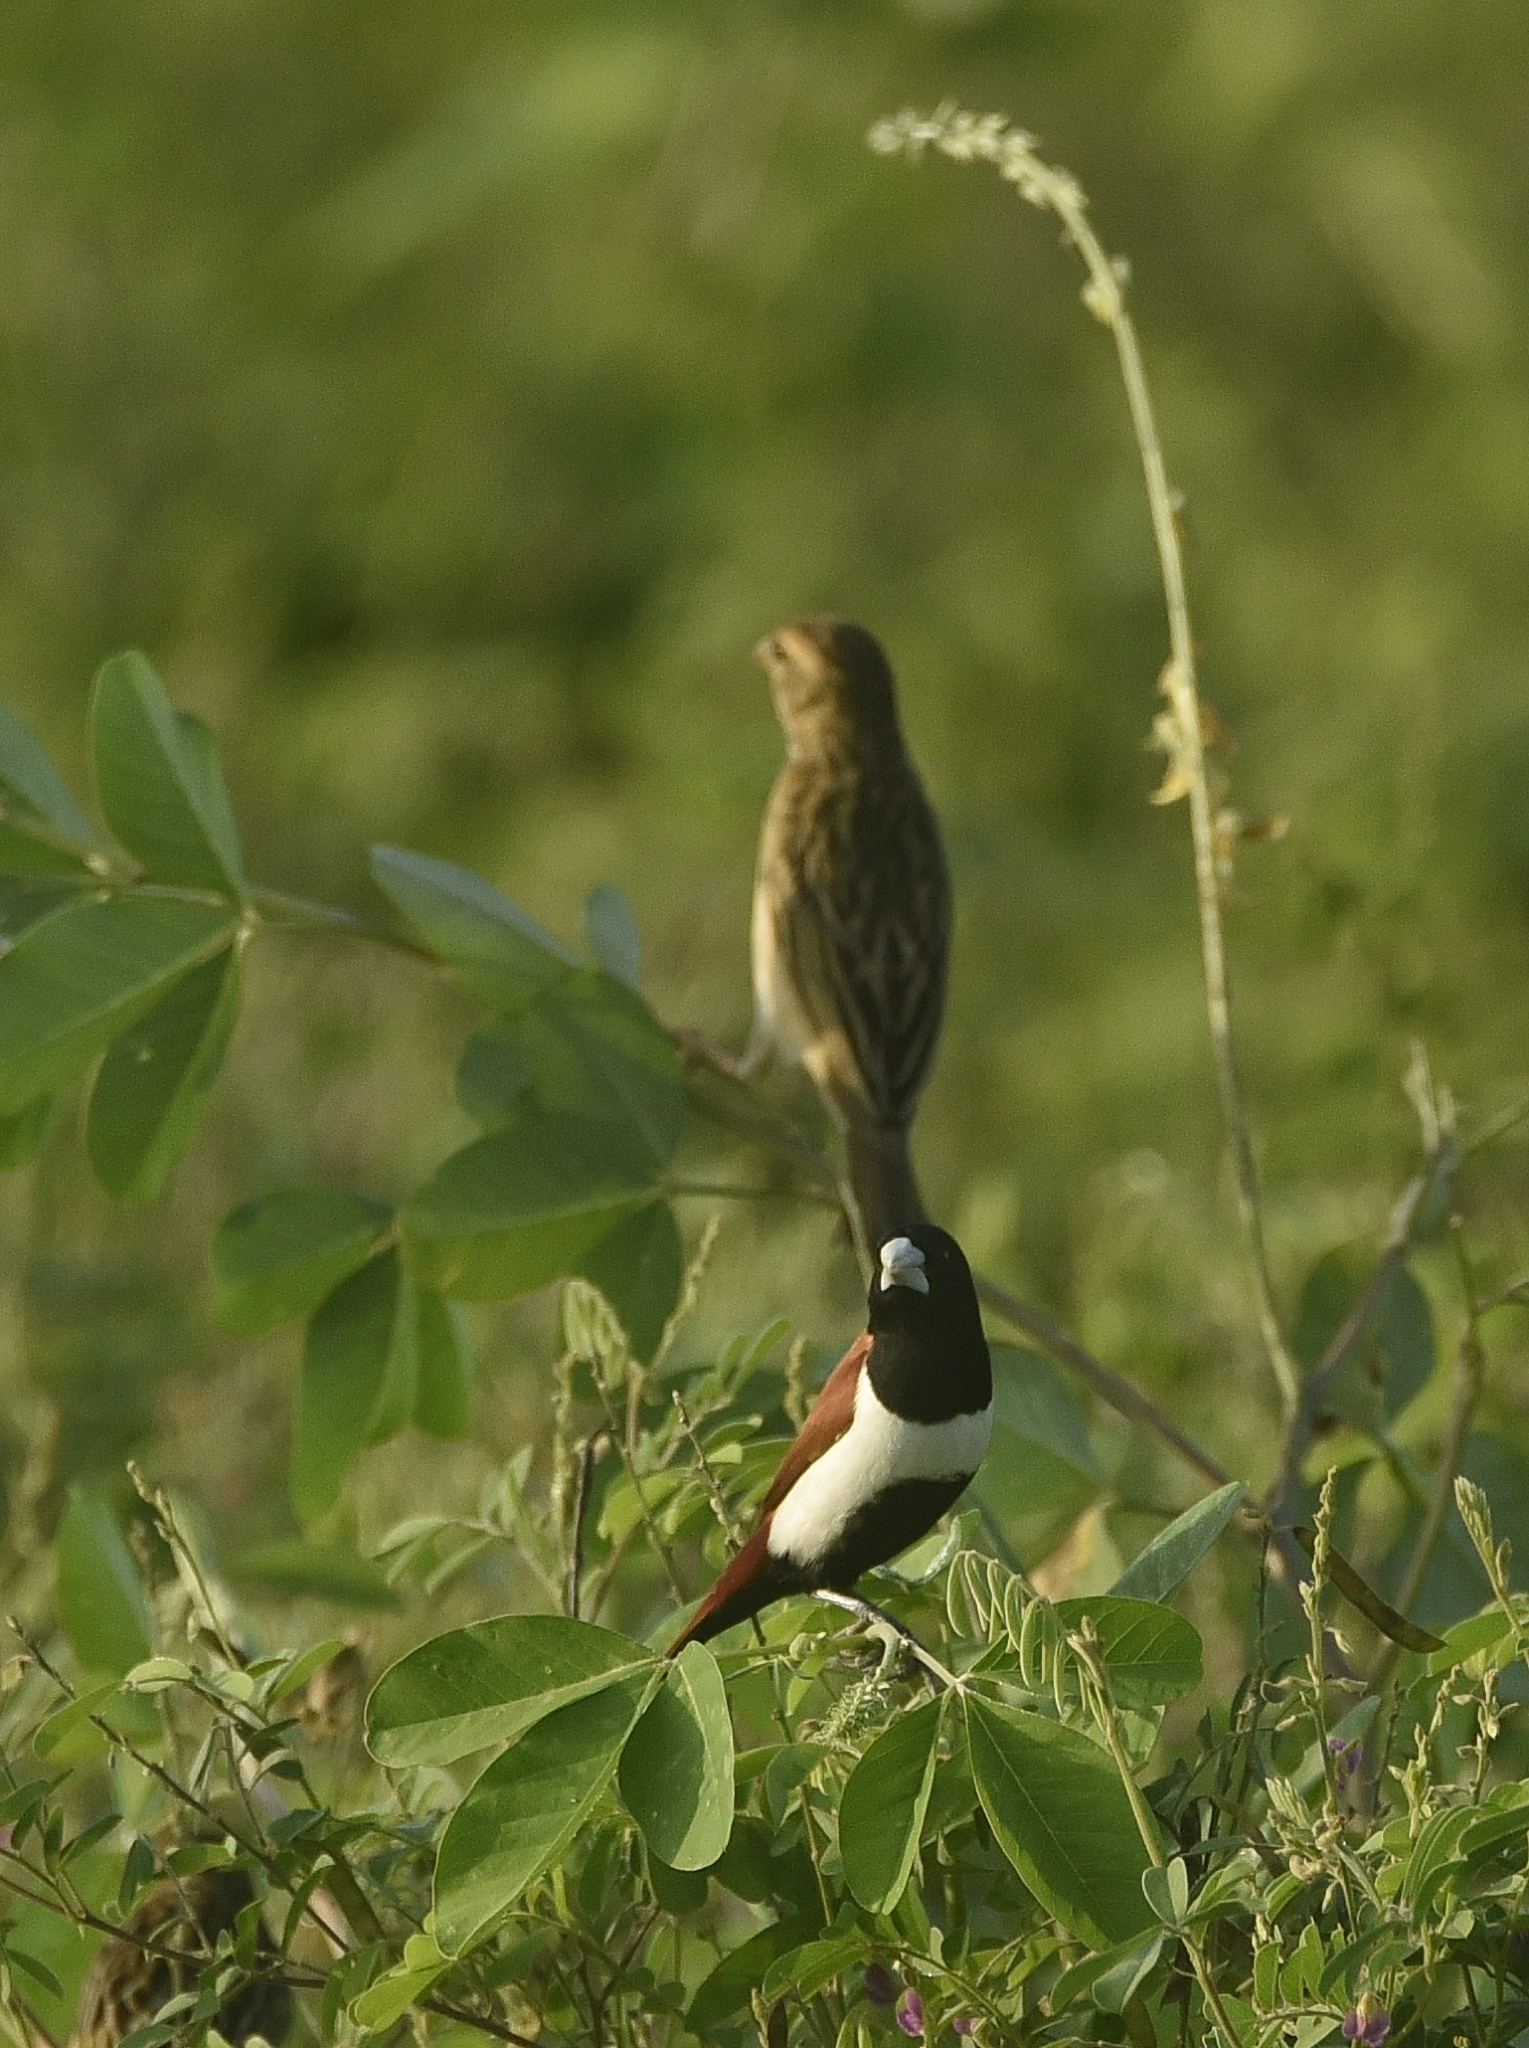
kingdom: Animalia
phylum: Chordata
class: Aves
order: Passeriformes
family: Estrildidae
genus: Lonchura
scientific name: Lonchura malacca
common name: Tricolored munia
